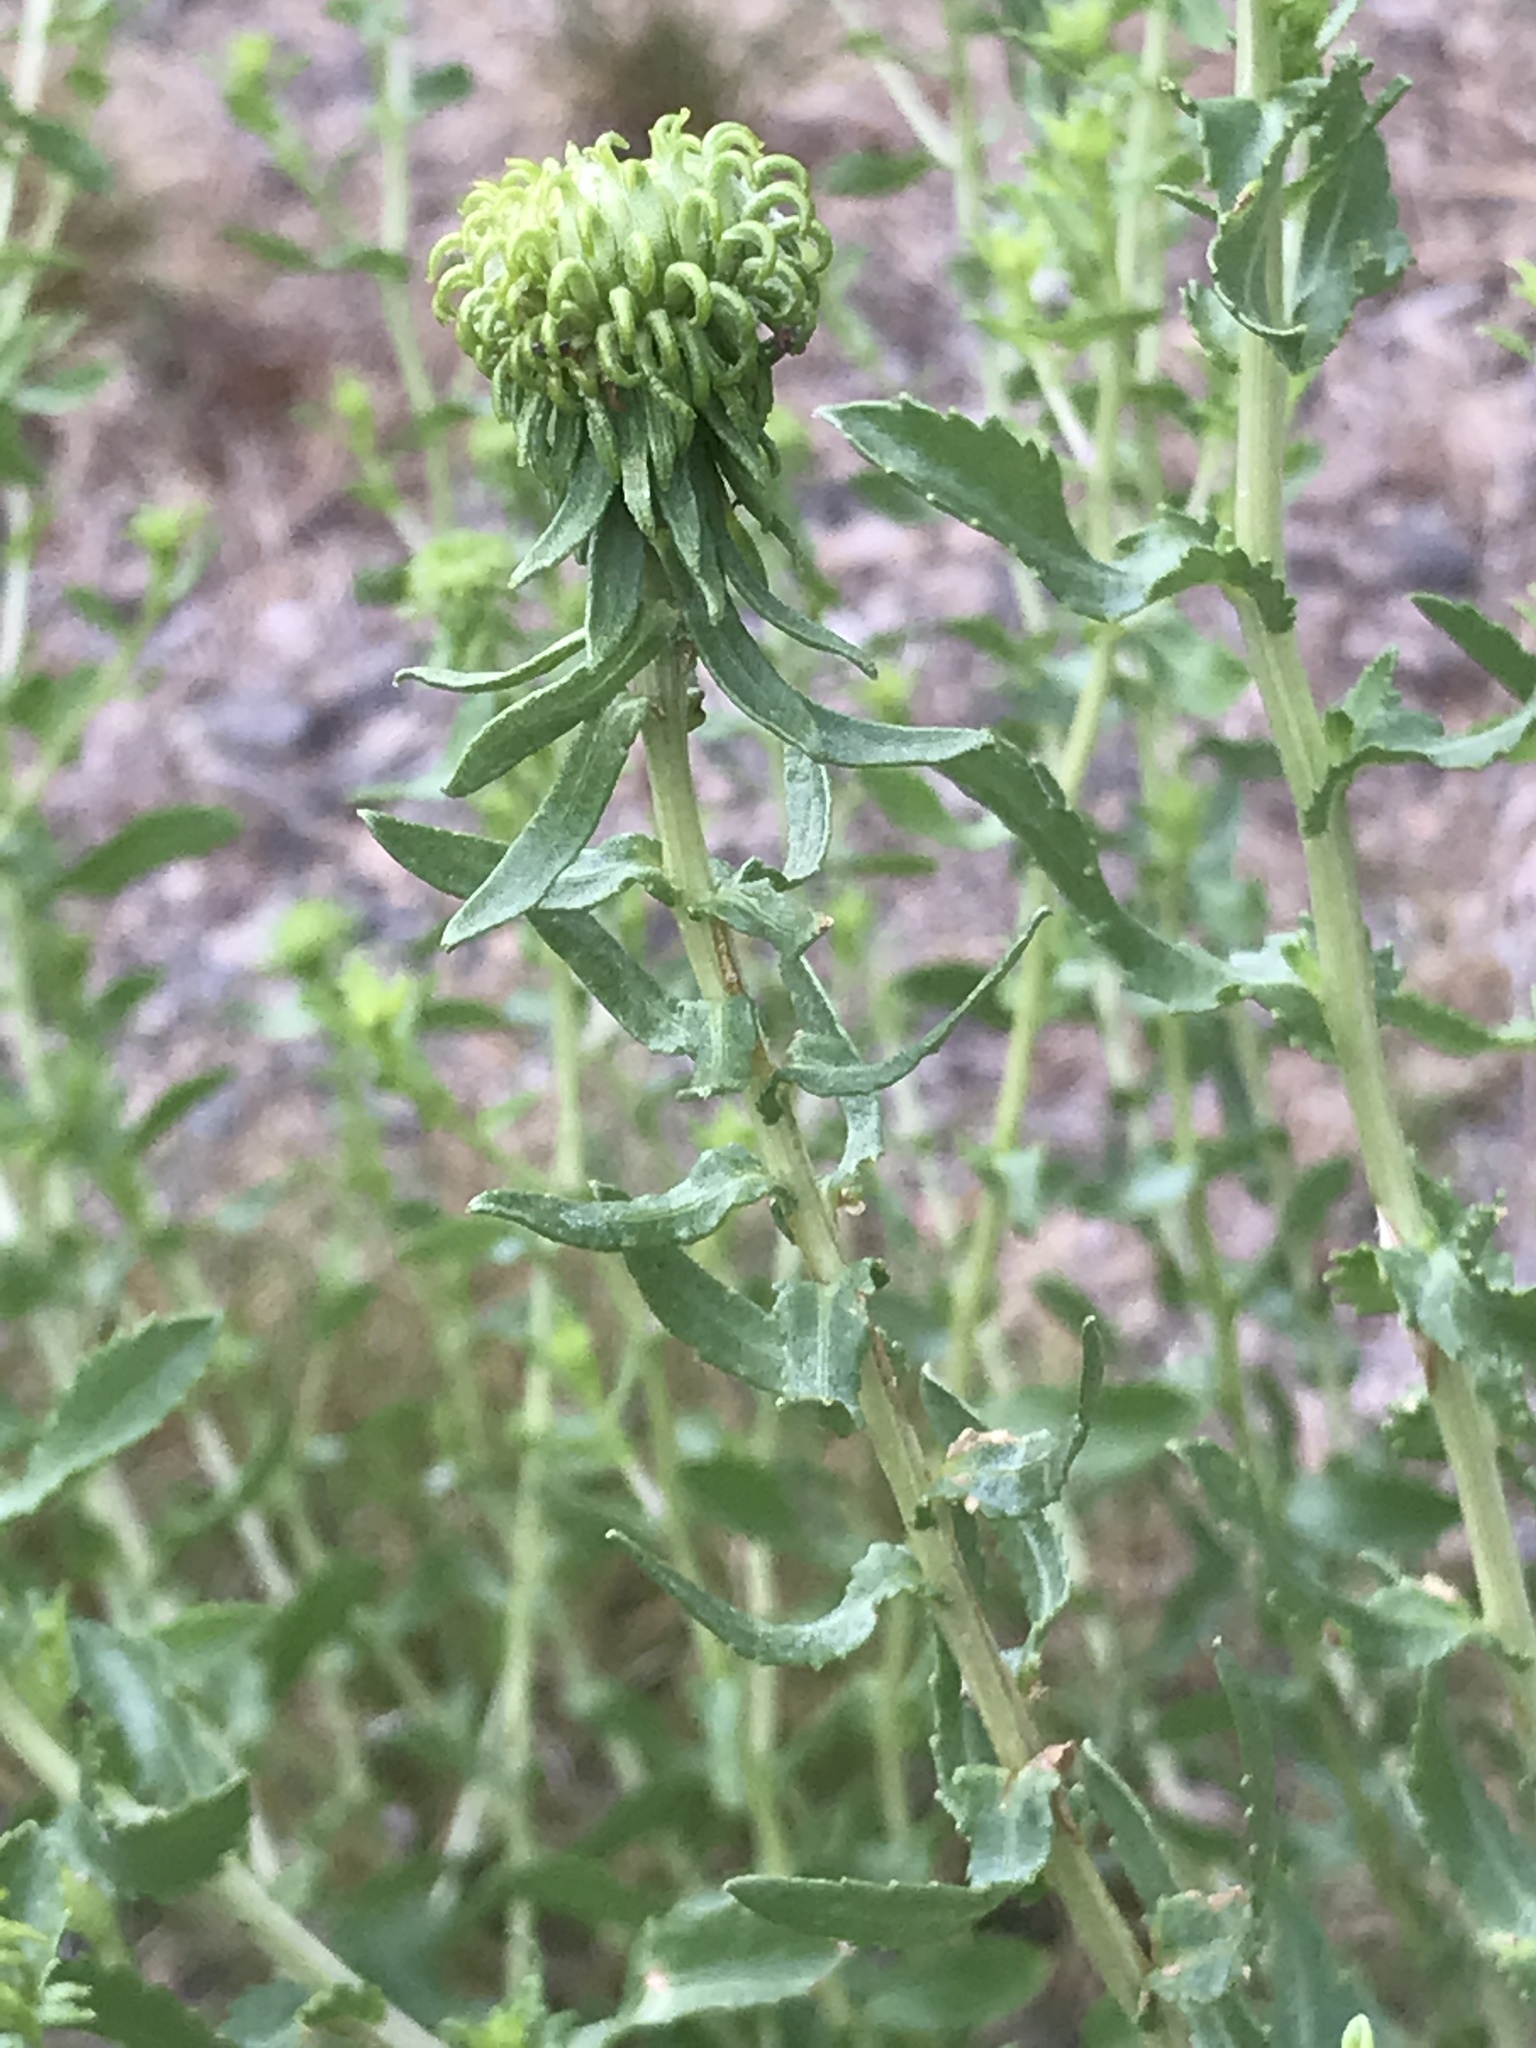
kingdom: Plantae
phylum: Tracheophyta
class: Magnoliopsida
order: Asterales
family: Asteraceae
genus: Grindelia
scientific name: Grindelia squarrosa
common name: Curly-cup gumweed
